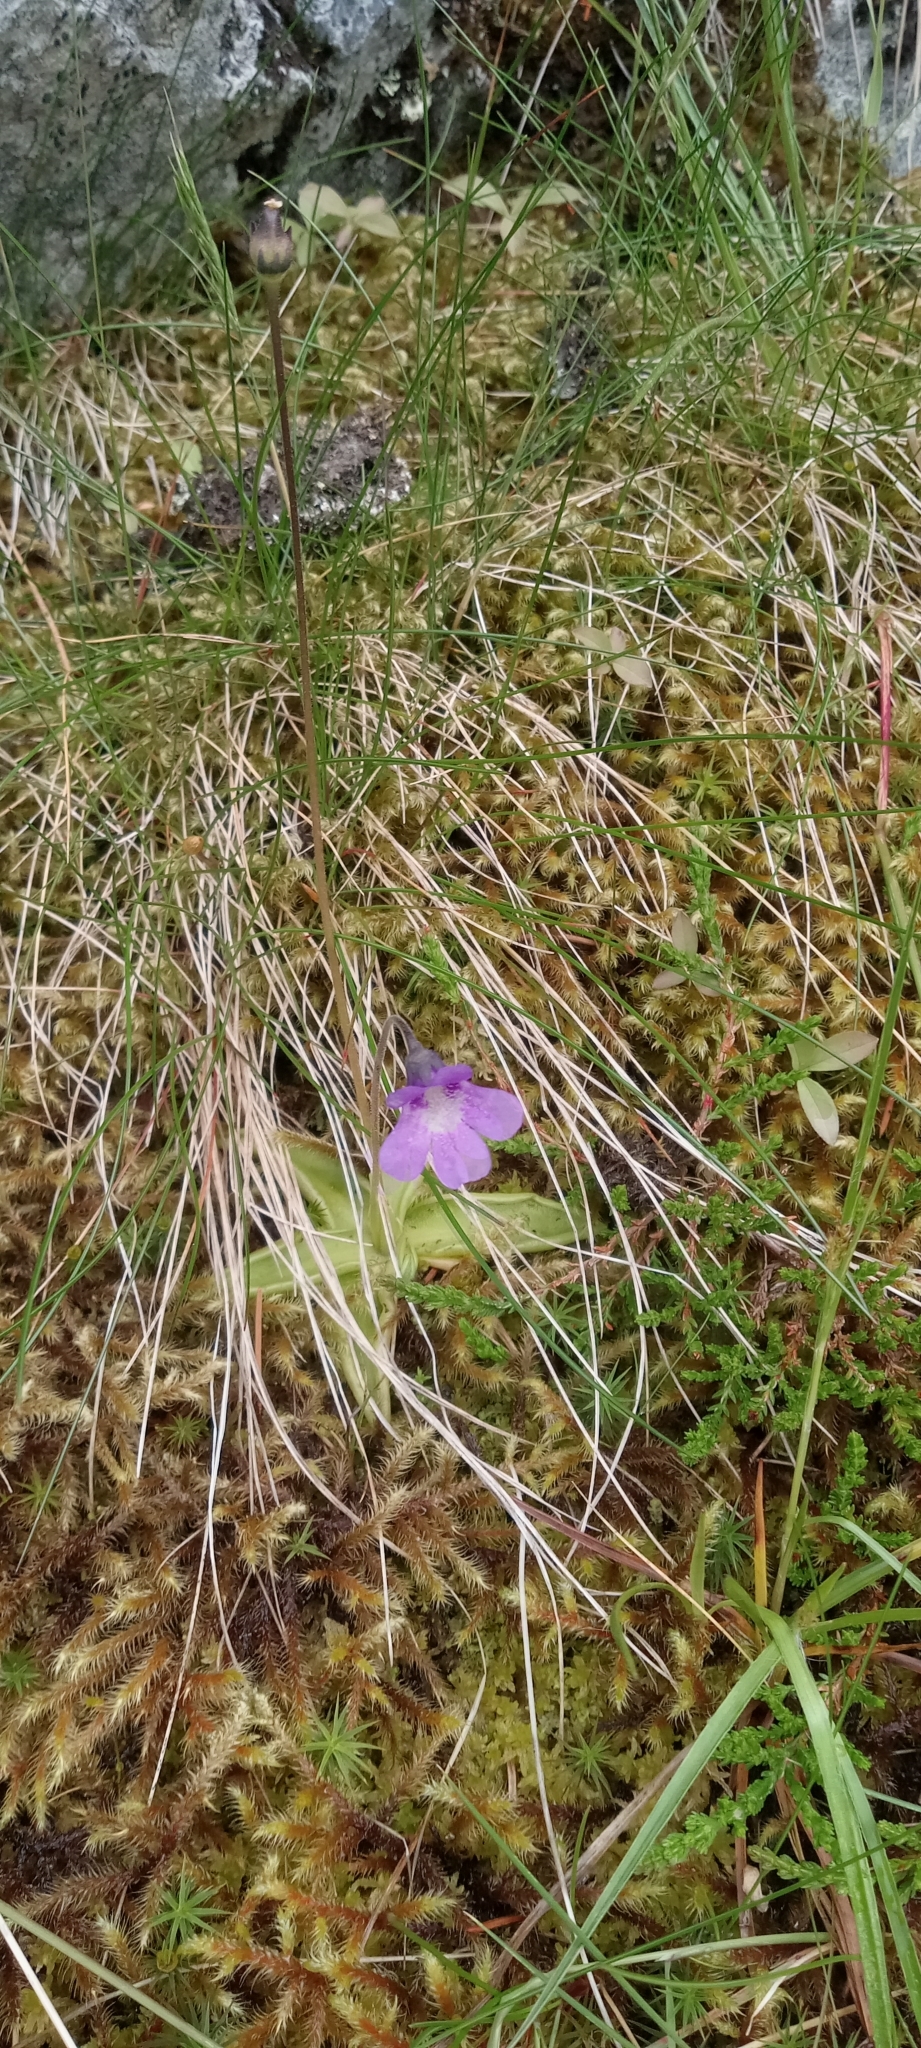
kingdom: Plantae
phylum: Tracheophyta
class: Magnoliopsida
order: Lamiales
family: Lentibulariaceae
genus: Pinguicula
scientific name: Pinguicula vulgaris
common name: Common butterwort
